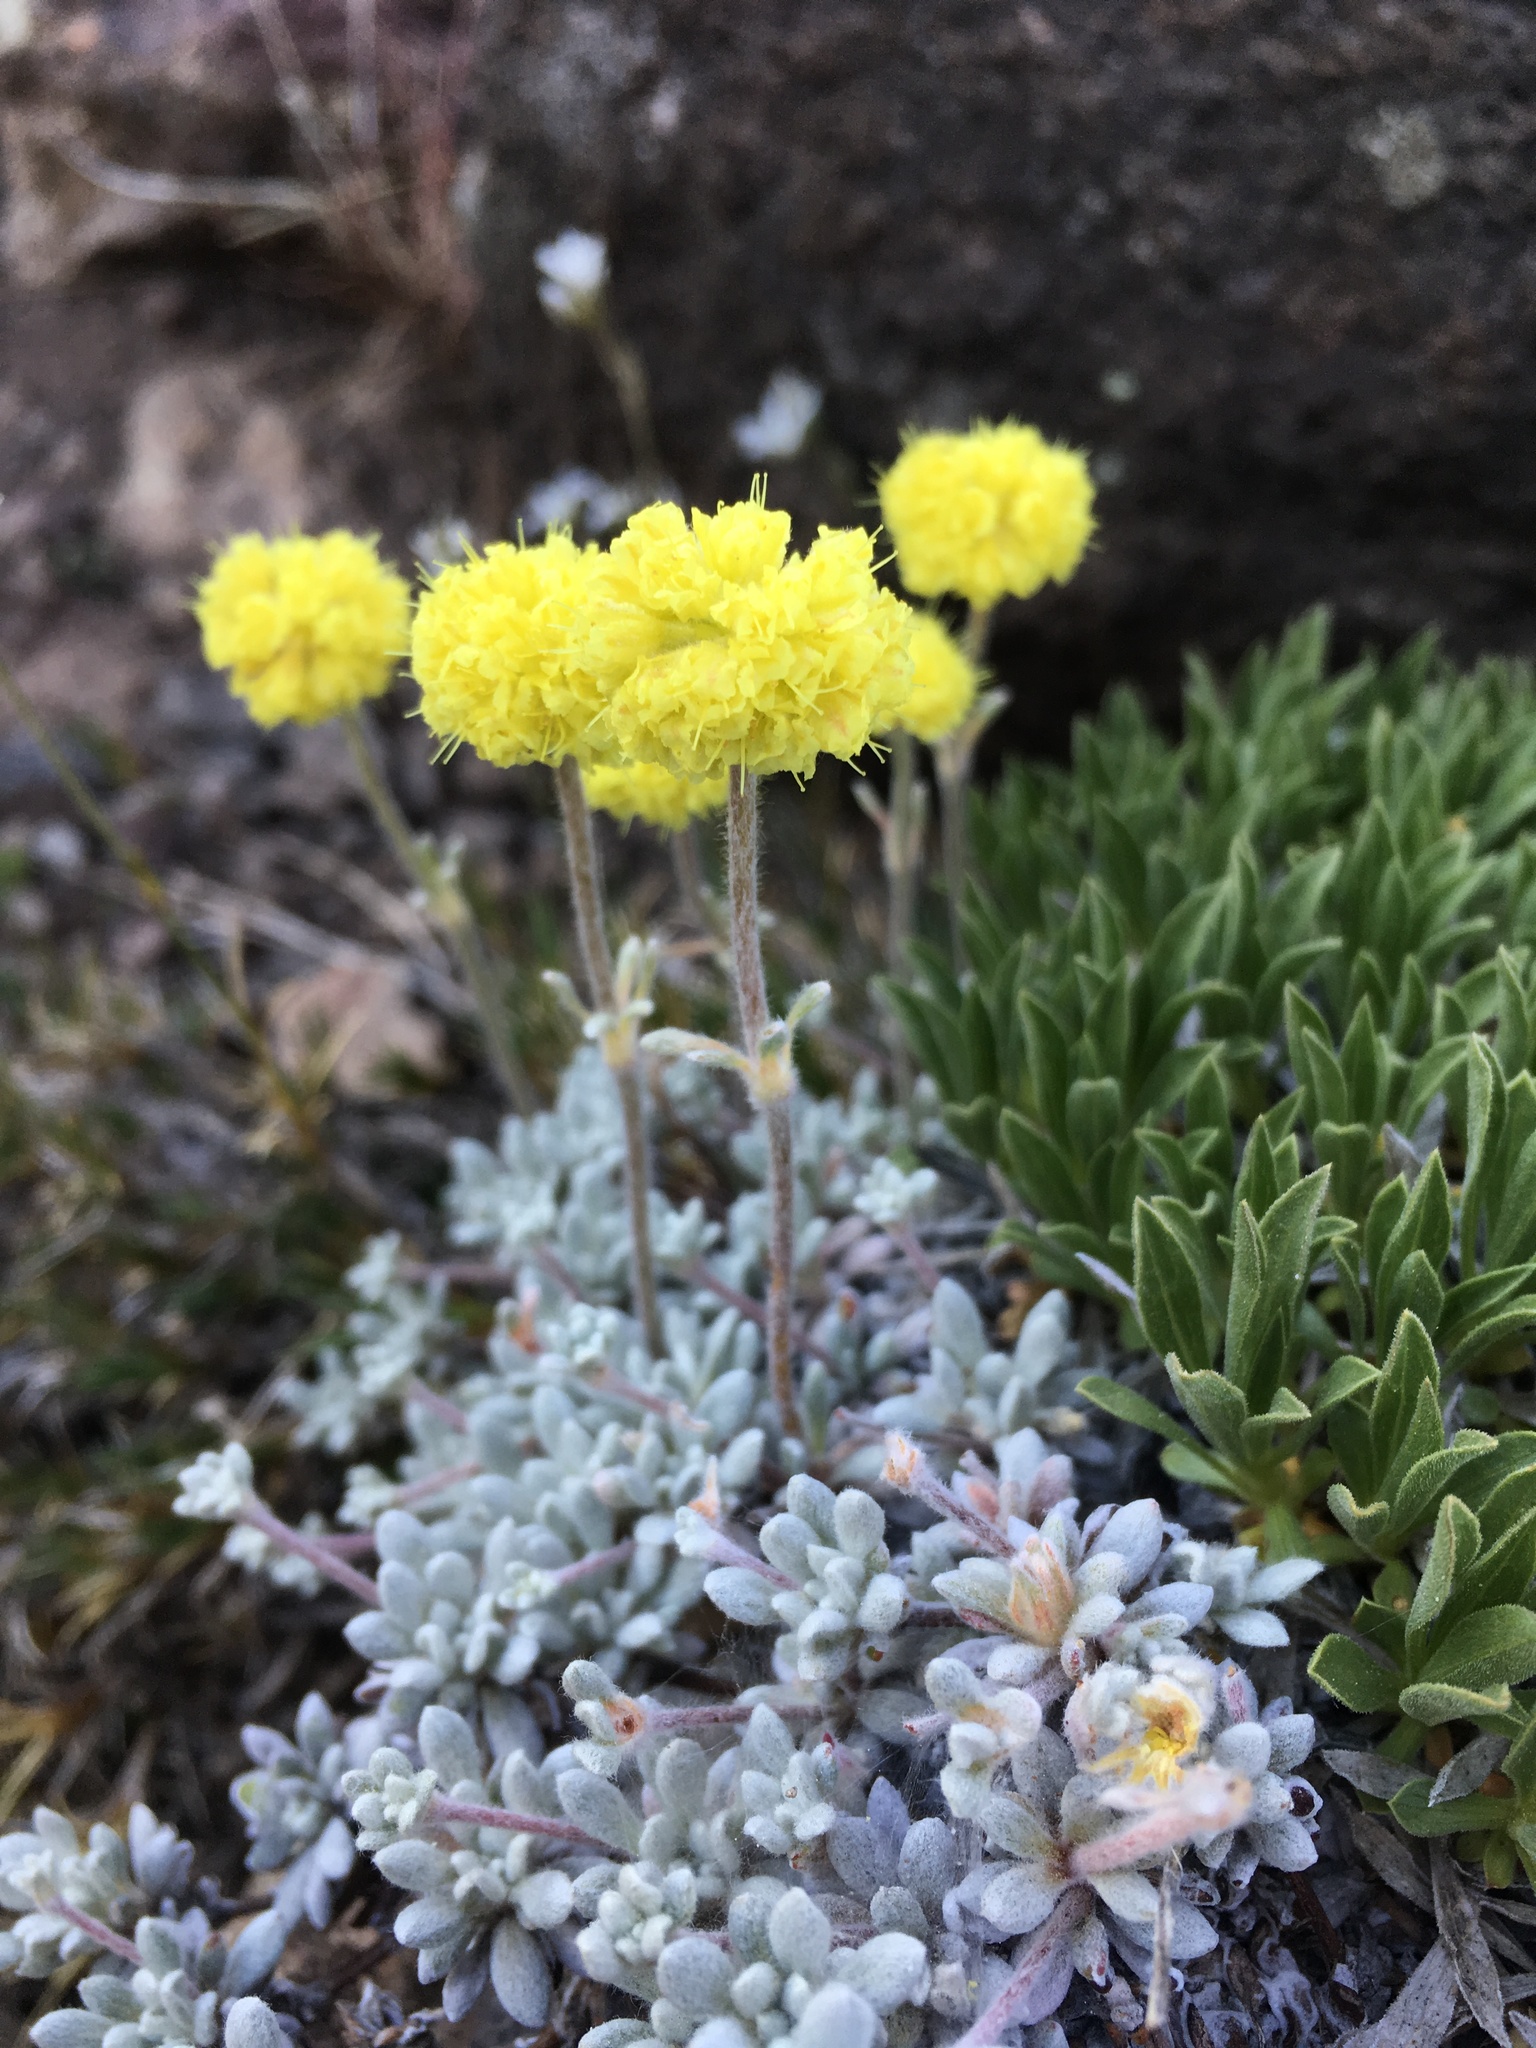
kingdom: Plantae
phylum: Tracheophyta
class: Magnoliopsida
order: Caryophyllales
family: Polygonaceae
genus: Eriogonum
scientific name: Eriogonum douglasii
